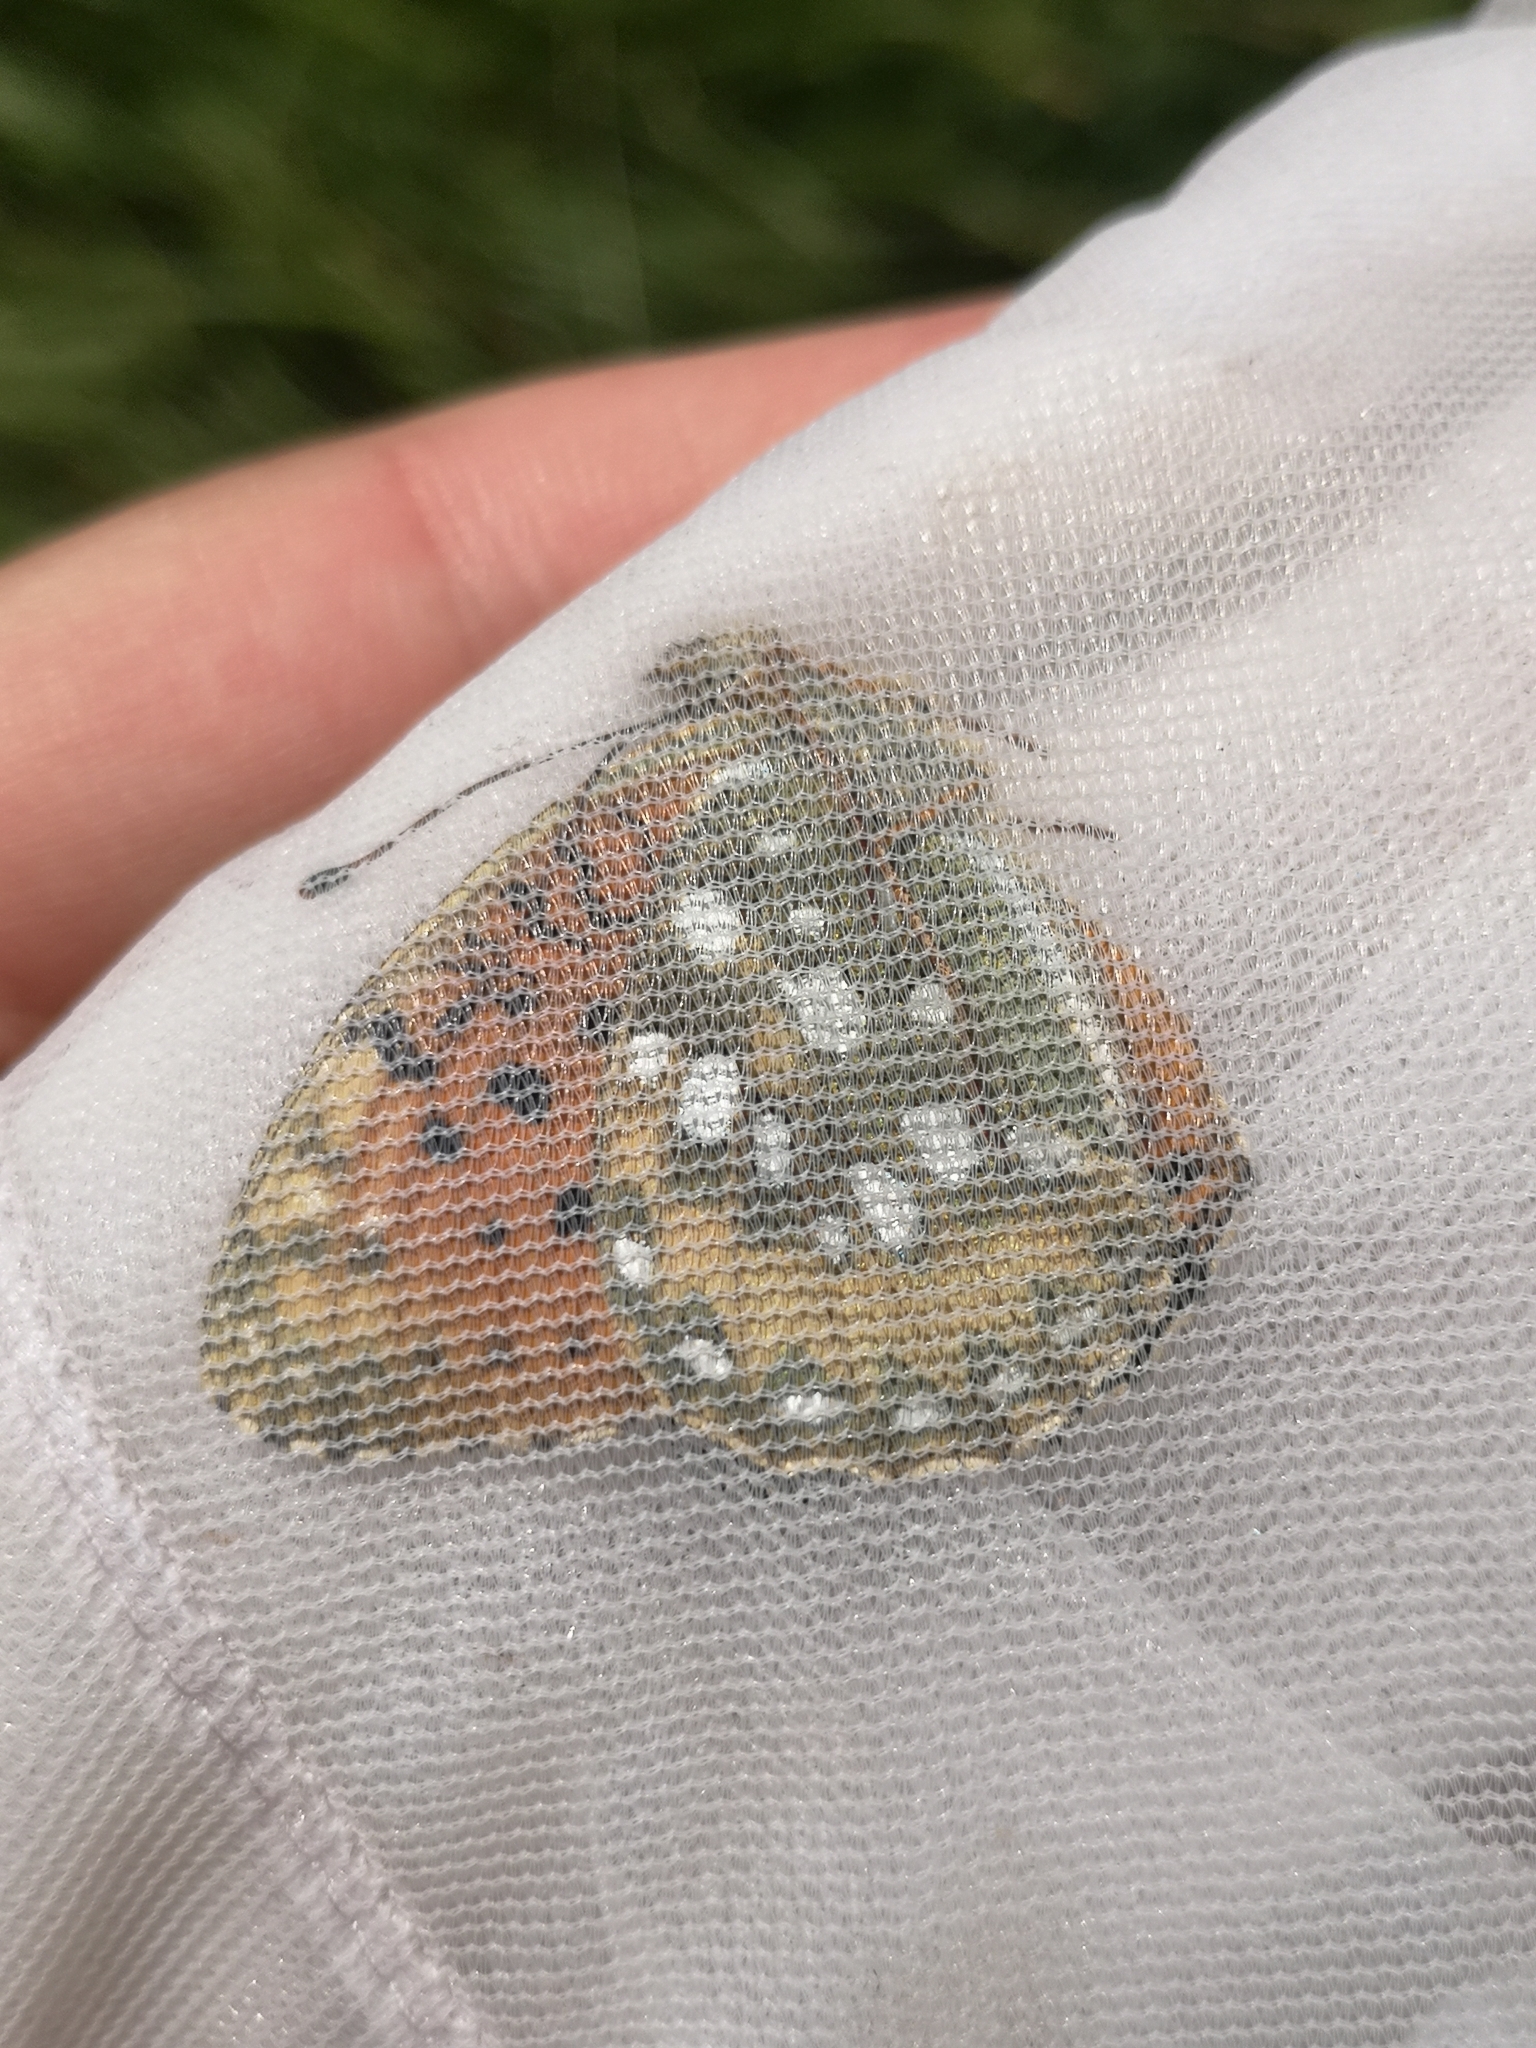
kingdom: Animalia
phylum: Arthropoda
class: Insecta
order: Lepidoptera
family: Nymphalidae
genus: Speyeria
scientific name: Speyeria aglaja
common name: Dark green fritillary
